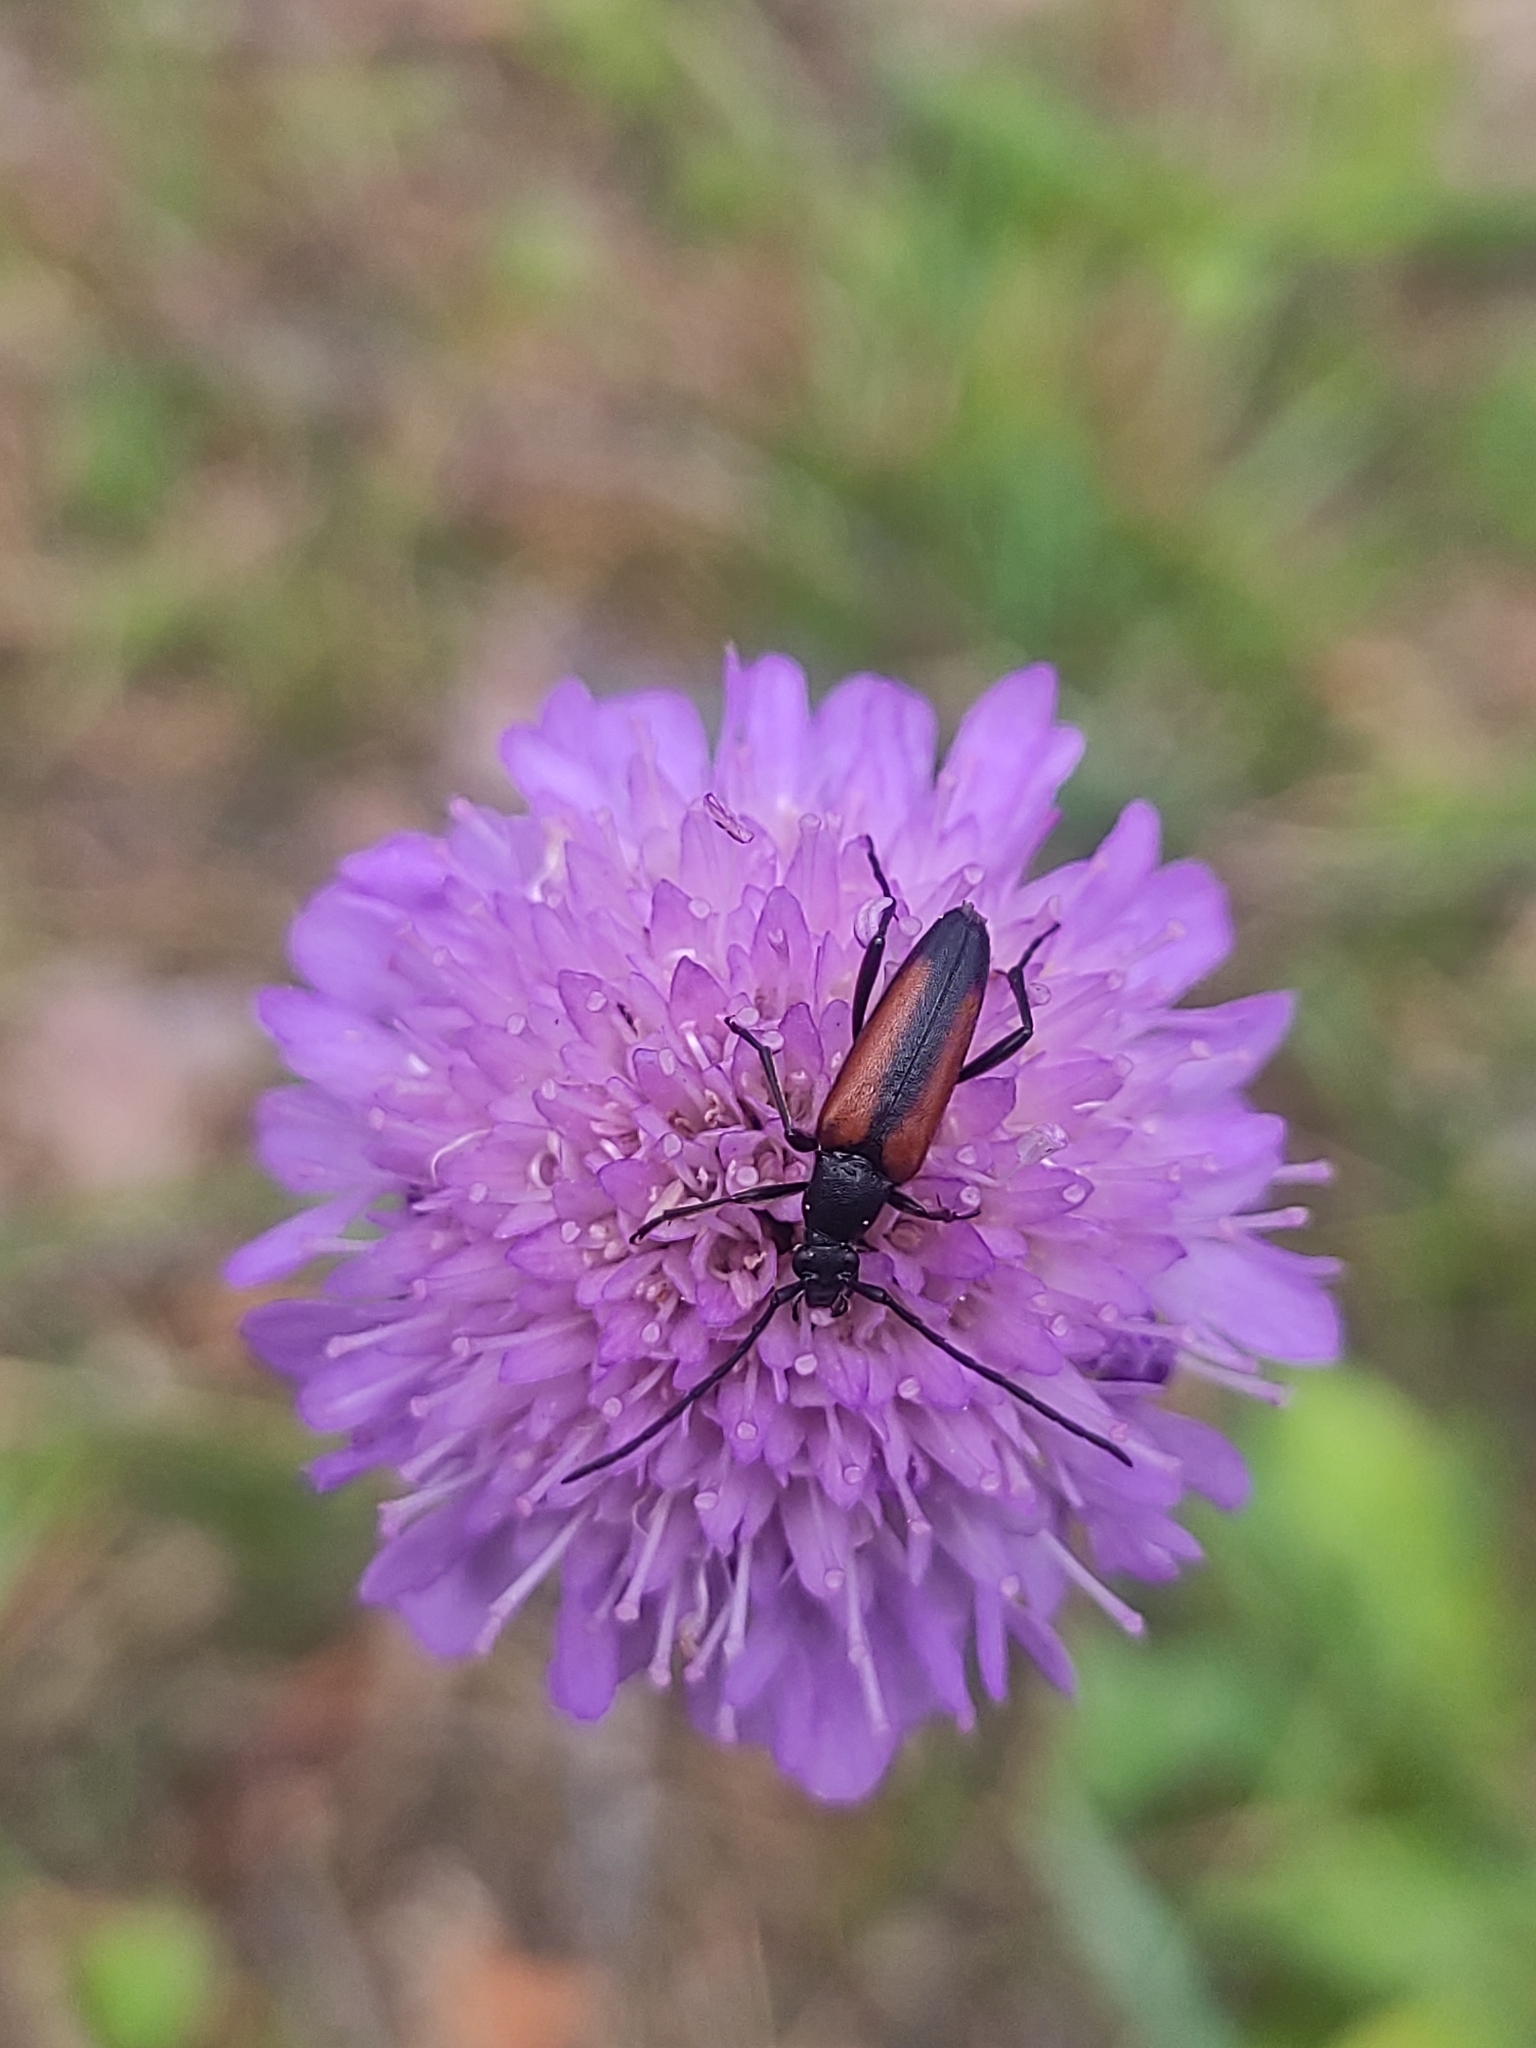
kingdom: Animalia
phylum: Arthropoda
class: Insecta
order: Coleoptera
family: Cerambycidae
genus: Stenurella
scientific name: Stenurella melanura
